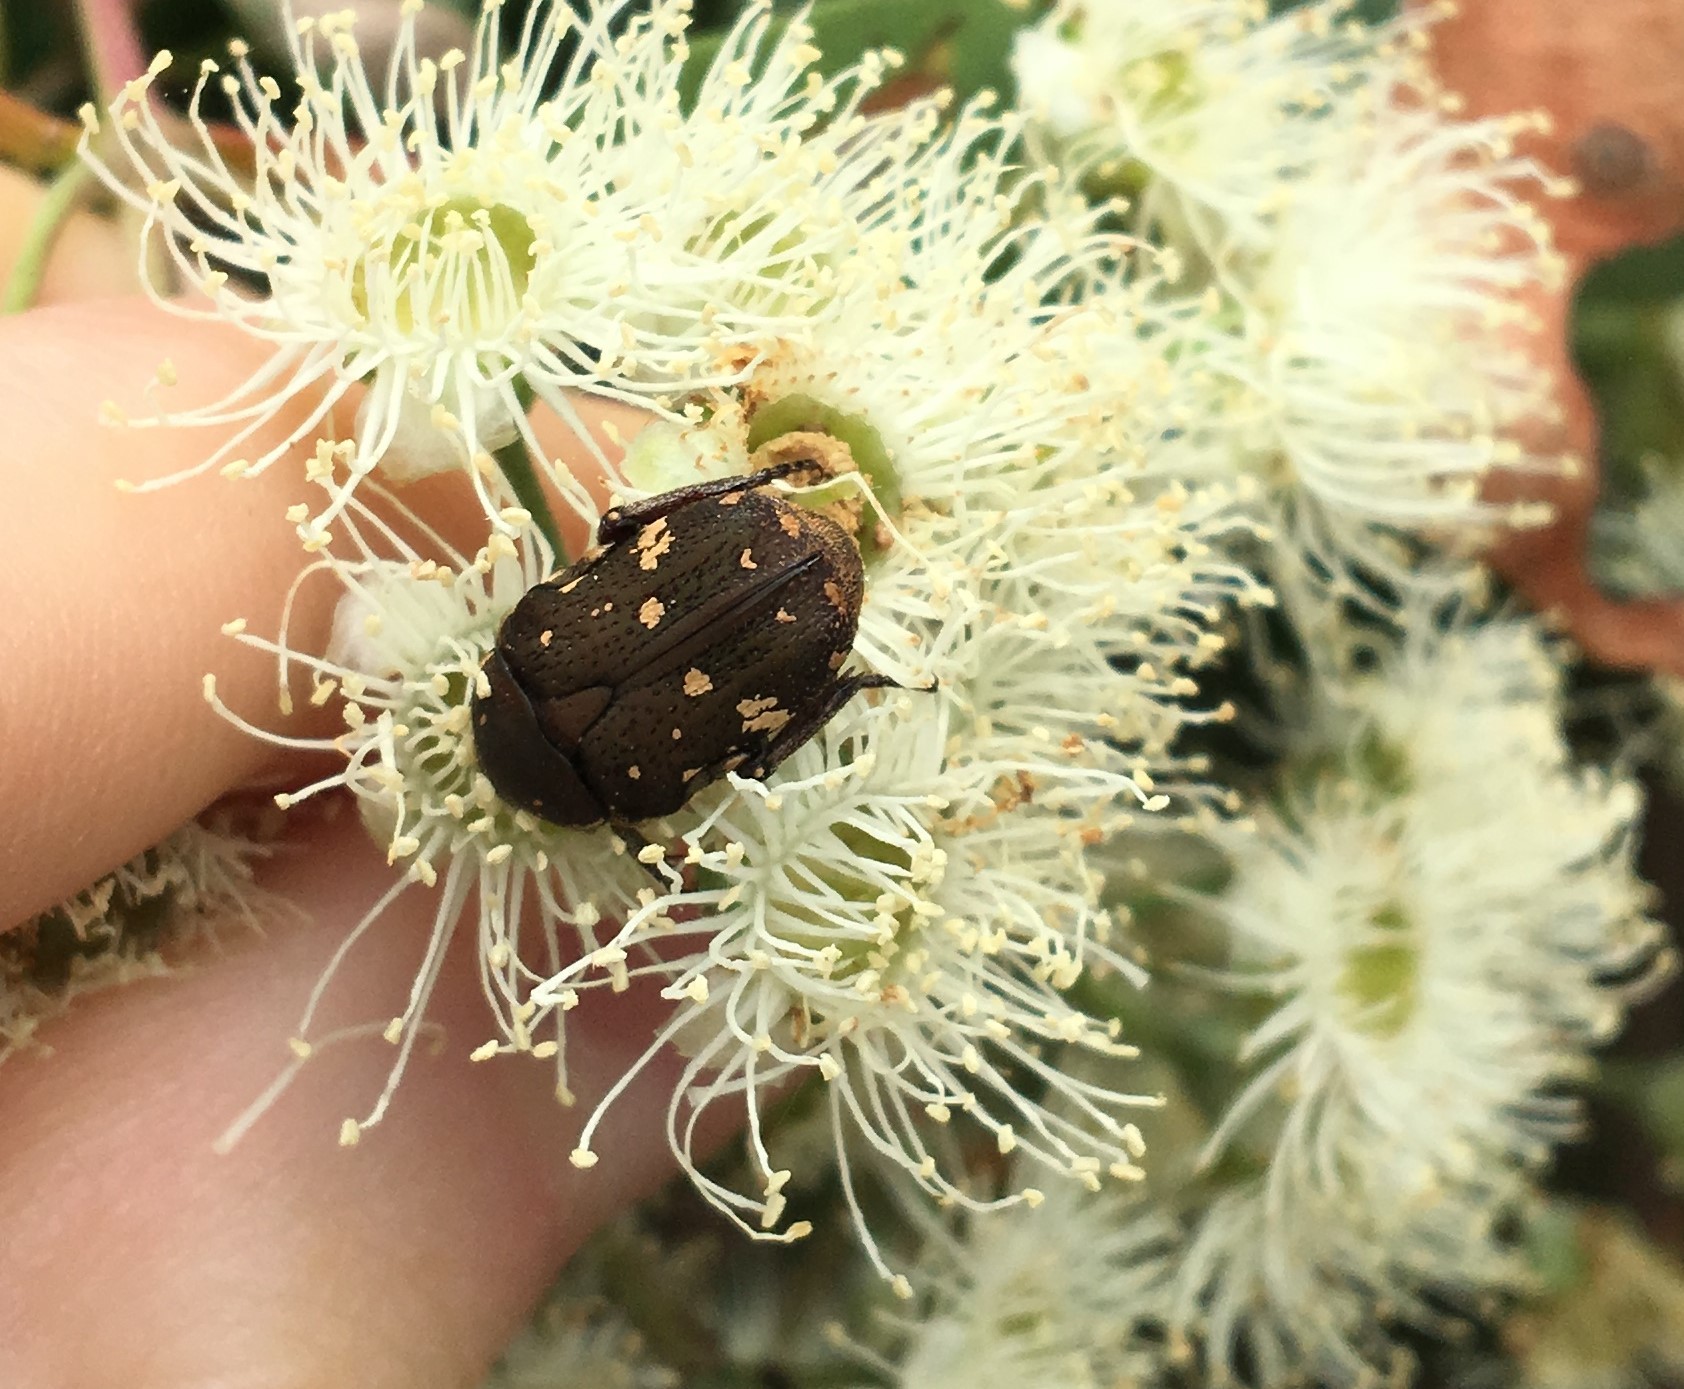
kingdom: Animalia
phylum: Arthropoda
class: Insecta
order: Coleoptera
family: Scarabaeidae
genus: Glycyphana
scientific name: Glycyphana stolata
